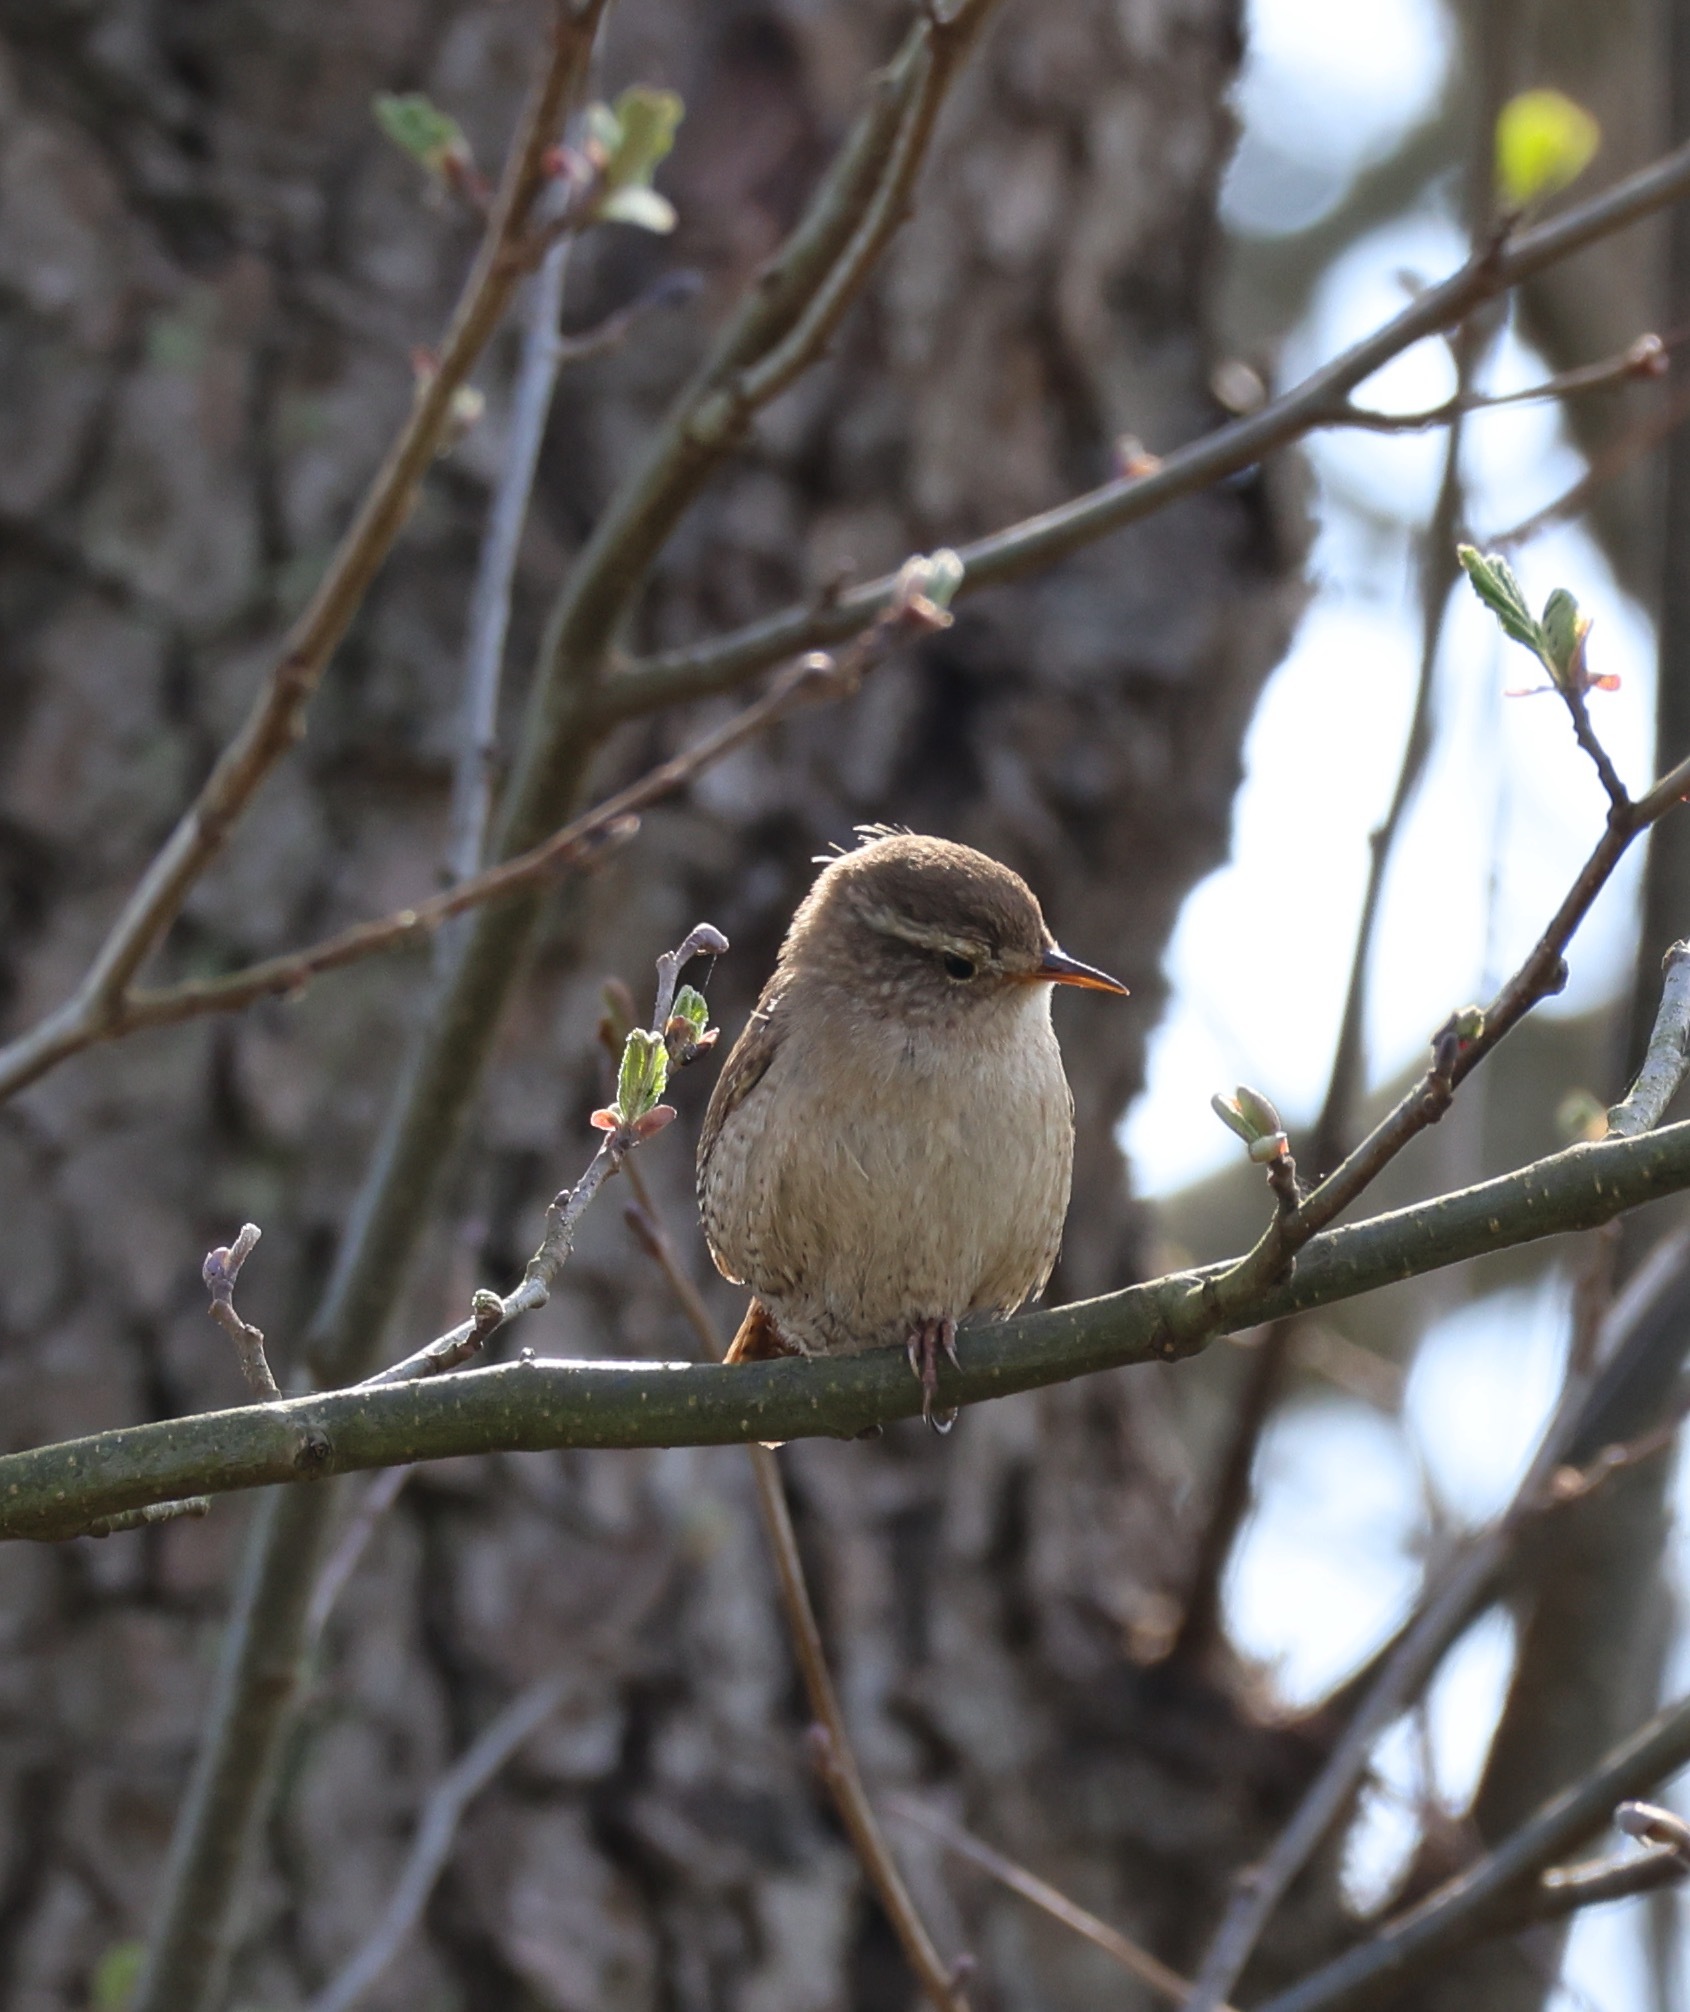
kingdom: Animalia
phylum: Chordata
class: Aves
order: Passeriformes
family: Troglodytidae
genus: Troglodytes
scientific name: Troglodytes troglodytes
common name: Eurasian wren
